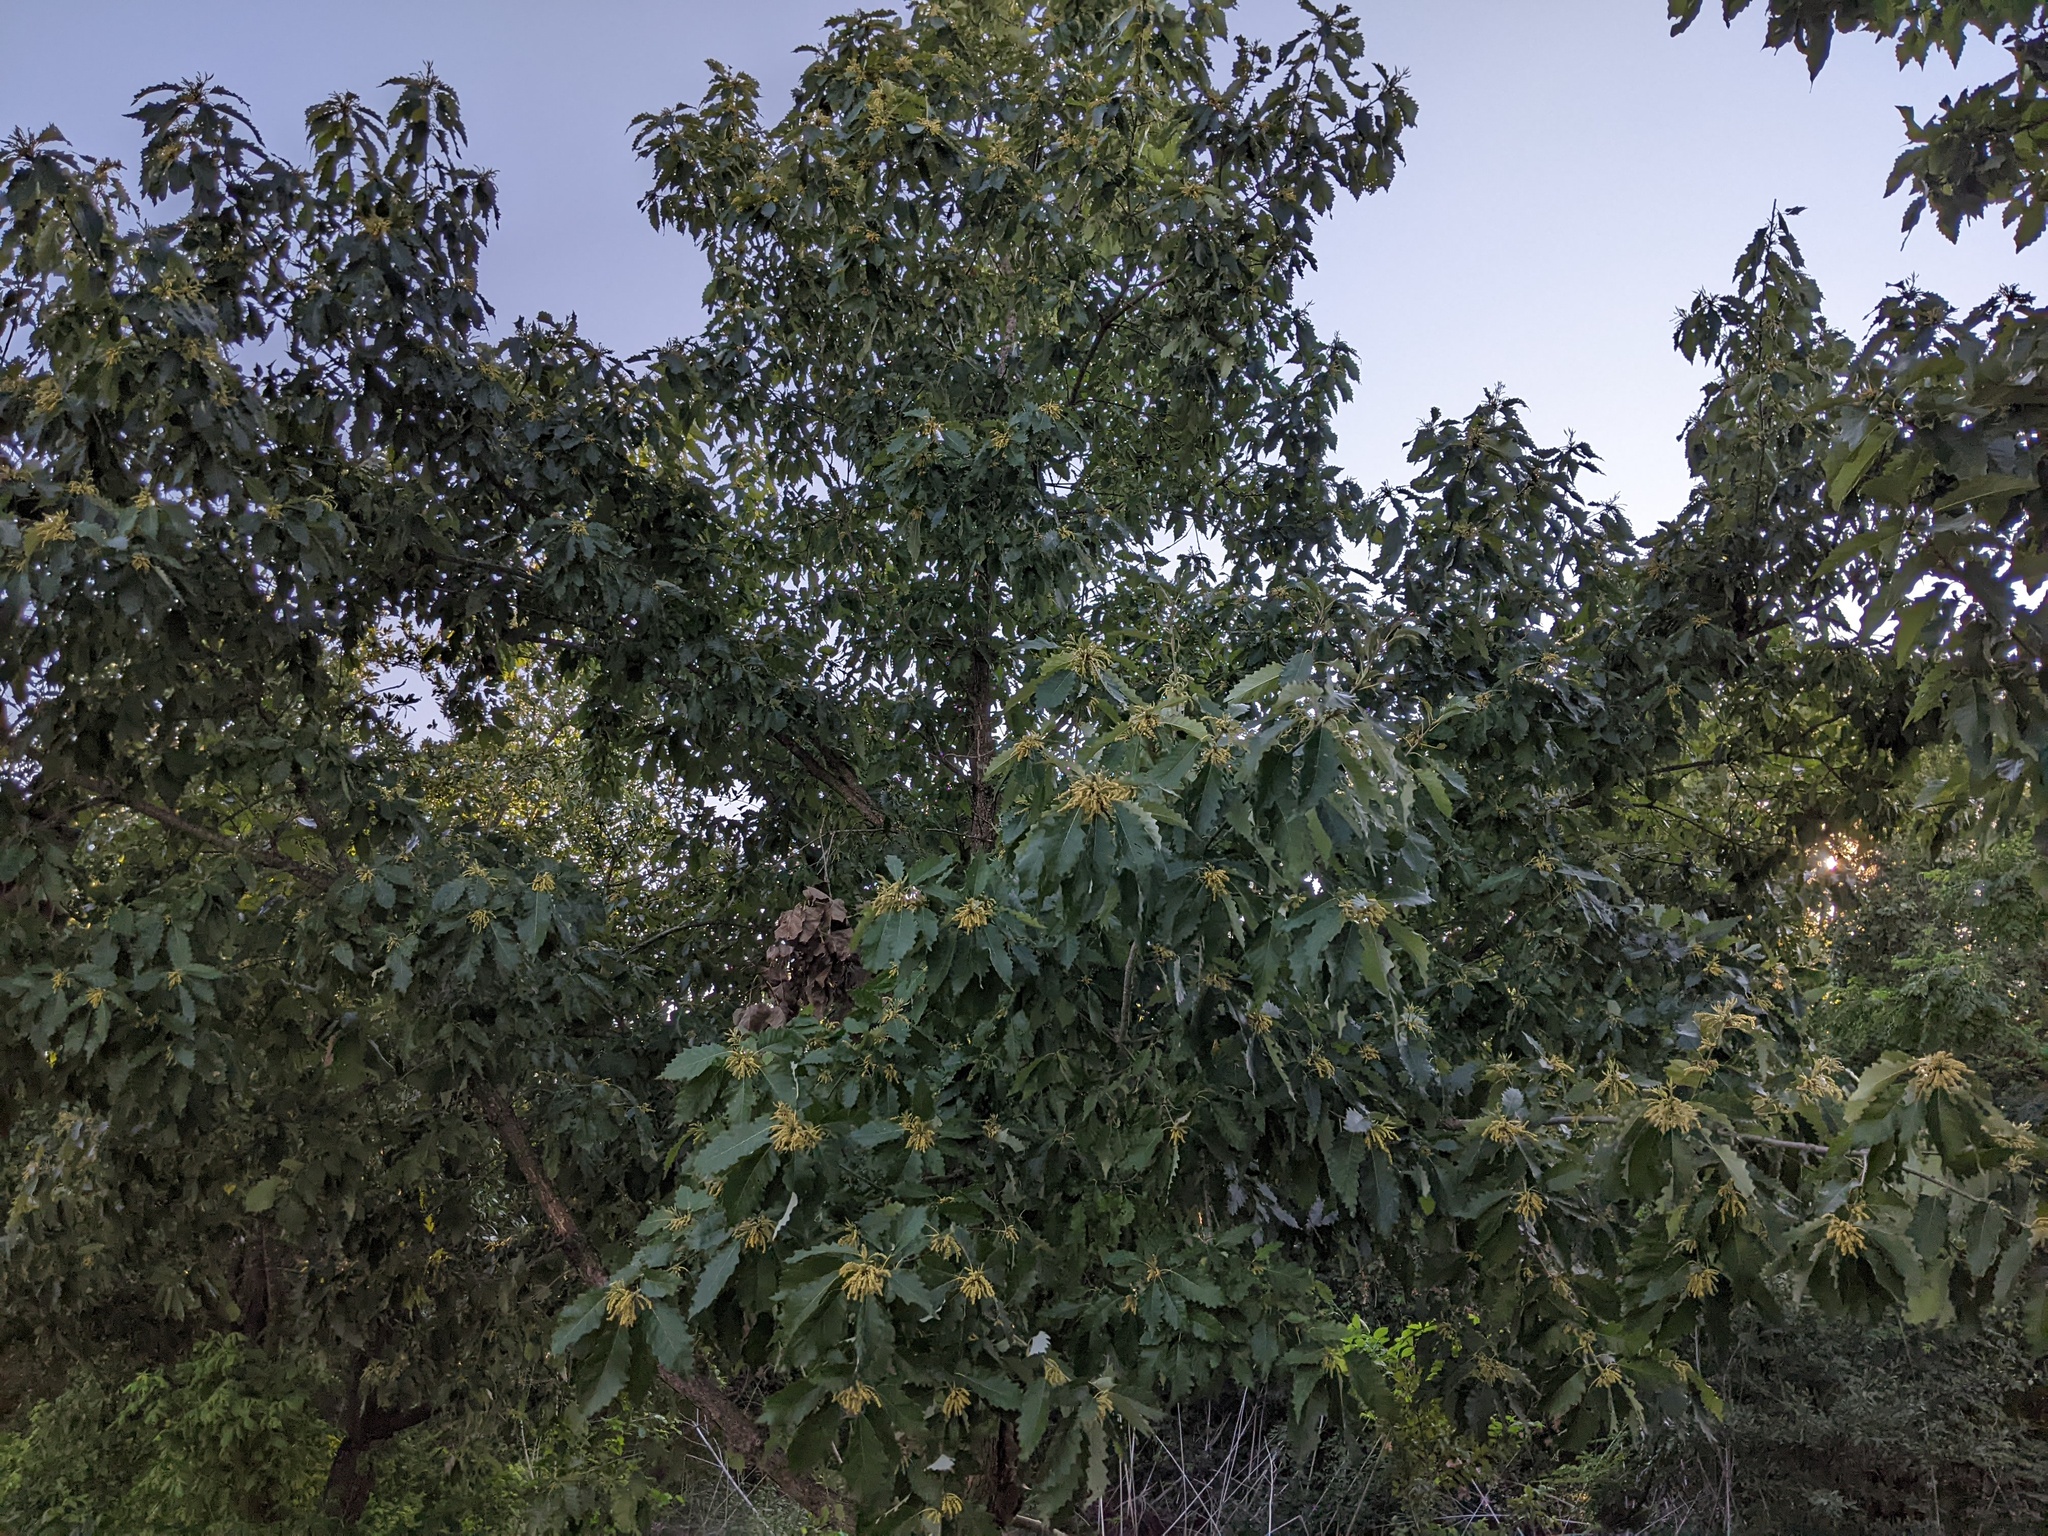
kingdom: Plantae
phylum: Tracheophyta
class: Magnoliopsida
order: Fagales
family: Fagaceae
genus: Quercus
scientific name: Quercus muehlenbergii
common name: Chinkapin oak
